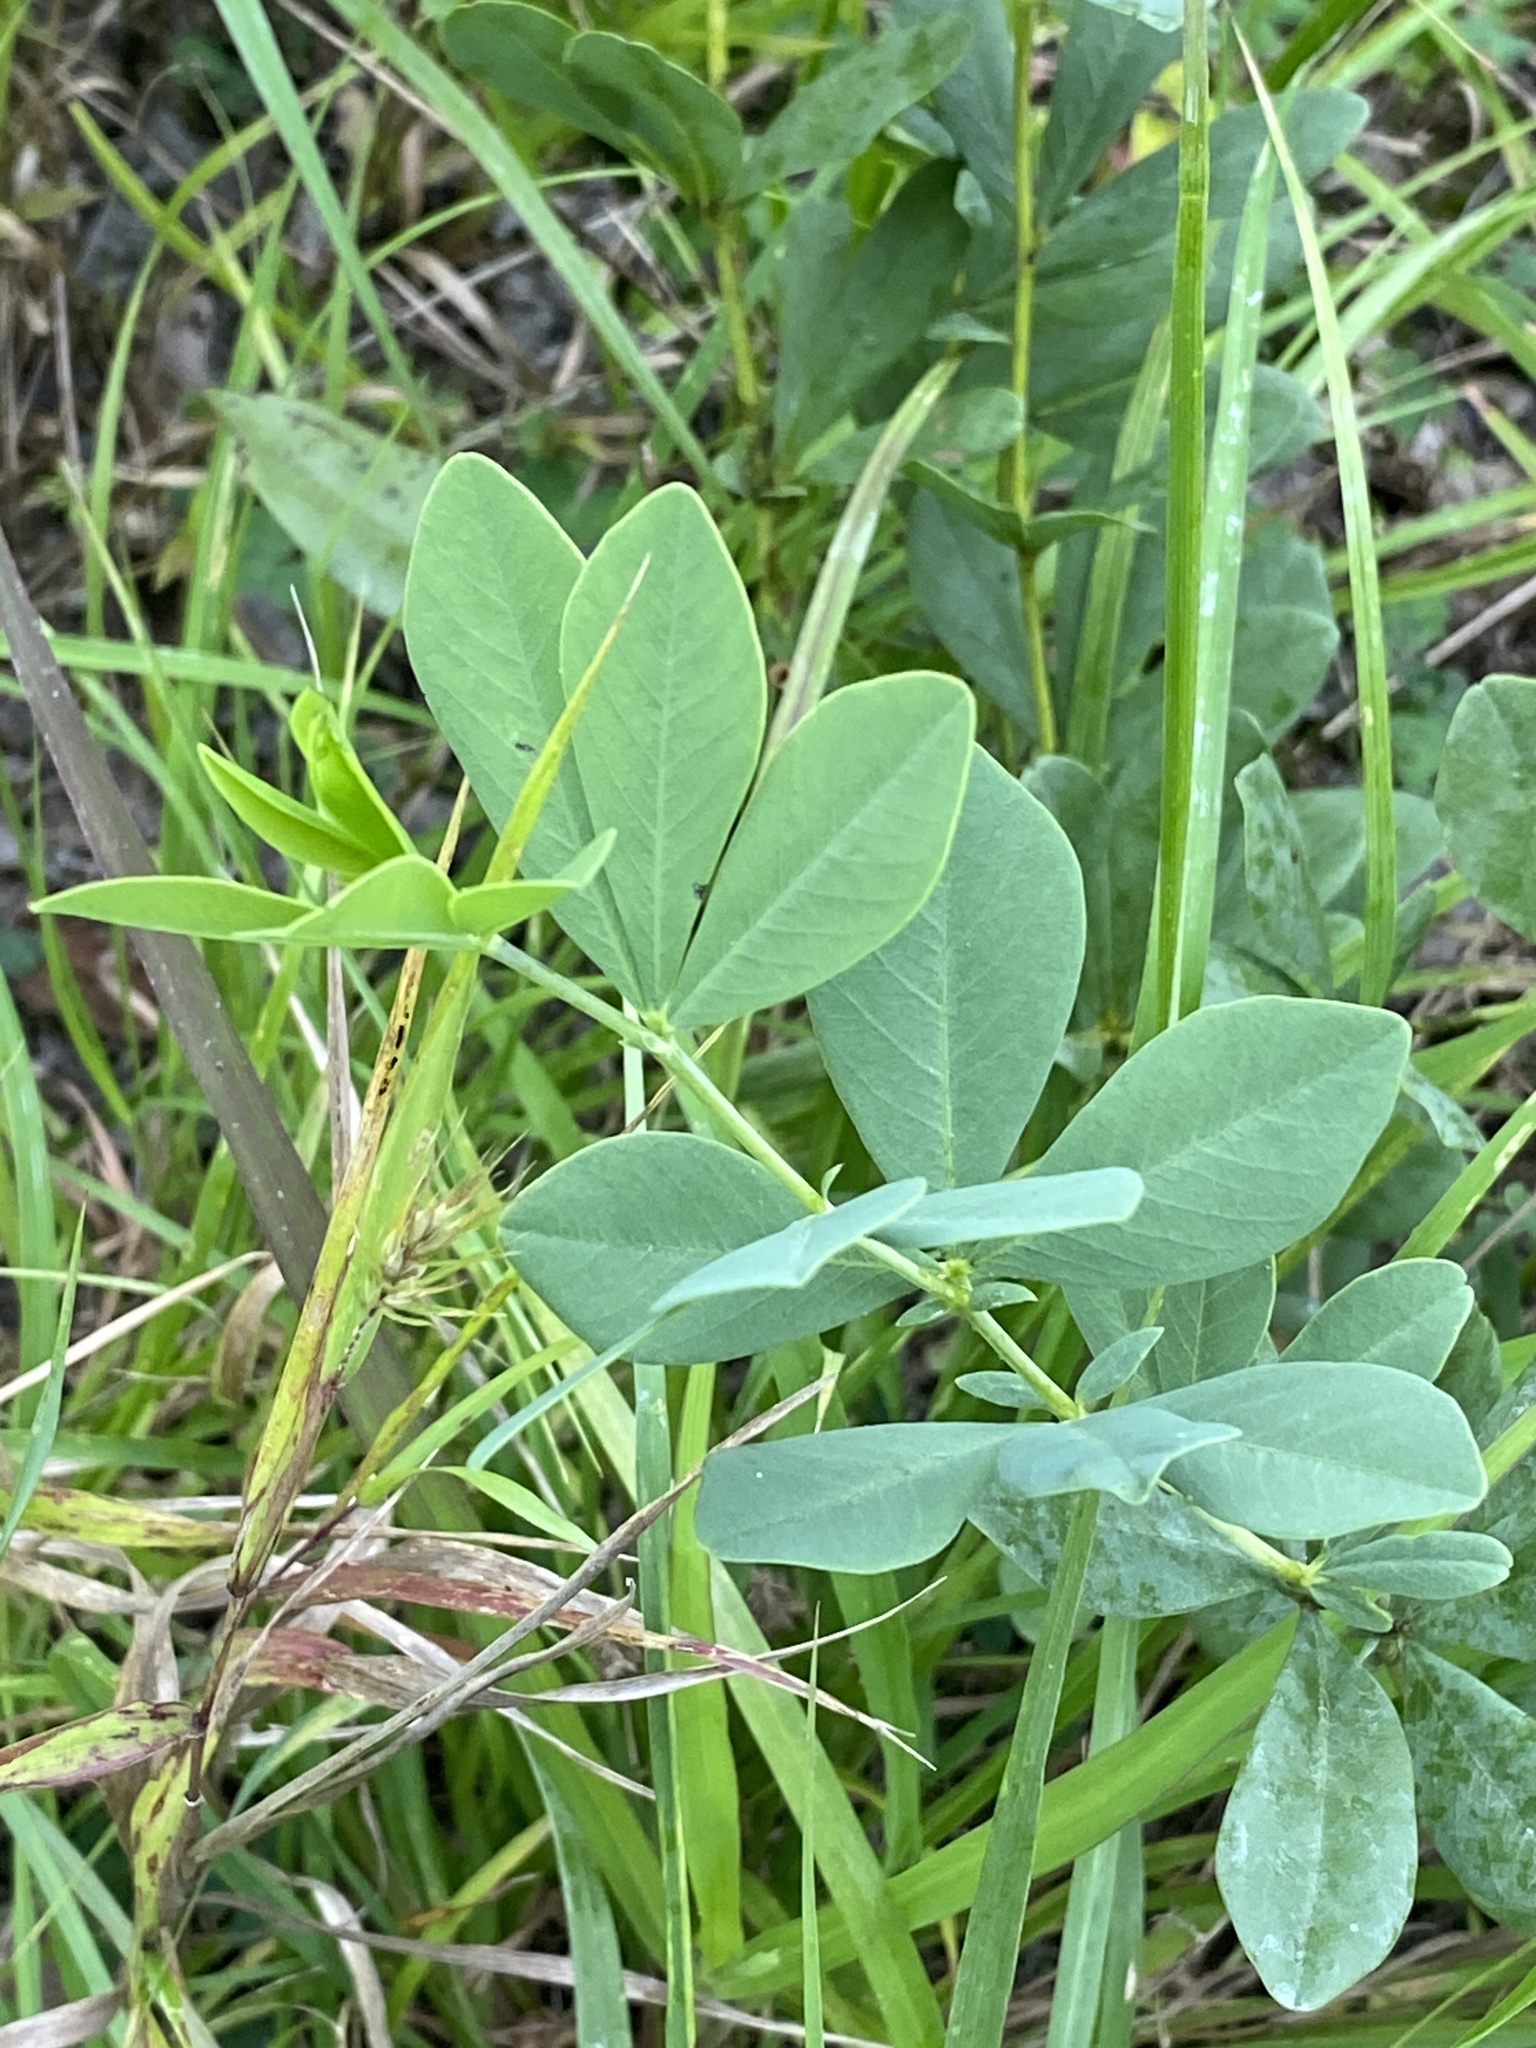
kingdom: Plantae
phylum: Tracheophyta
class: Magnoliopsida
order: Fabales
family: Fabaceae
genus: Baptisia
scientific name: Baptisia australis
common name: Blue false indigo
